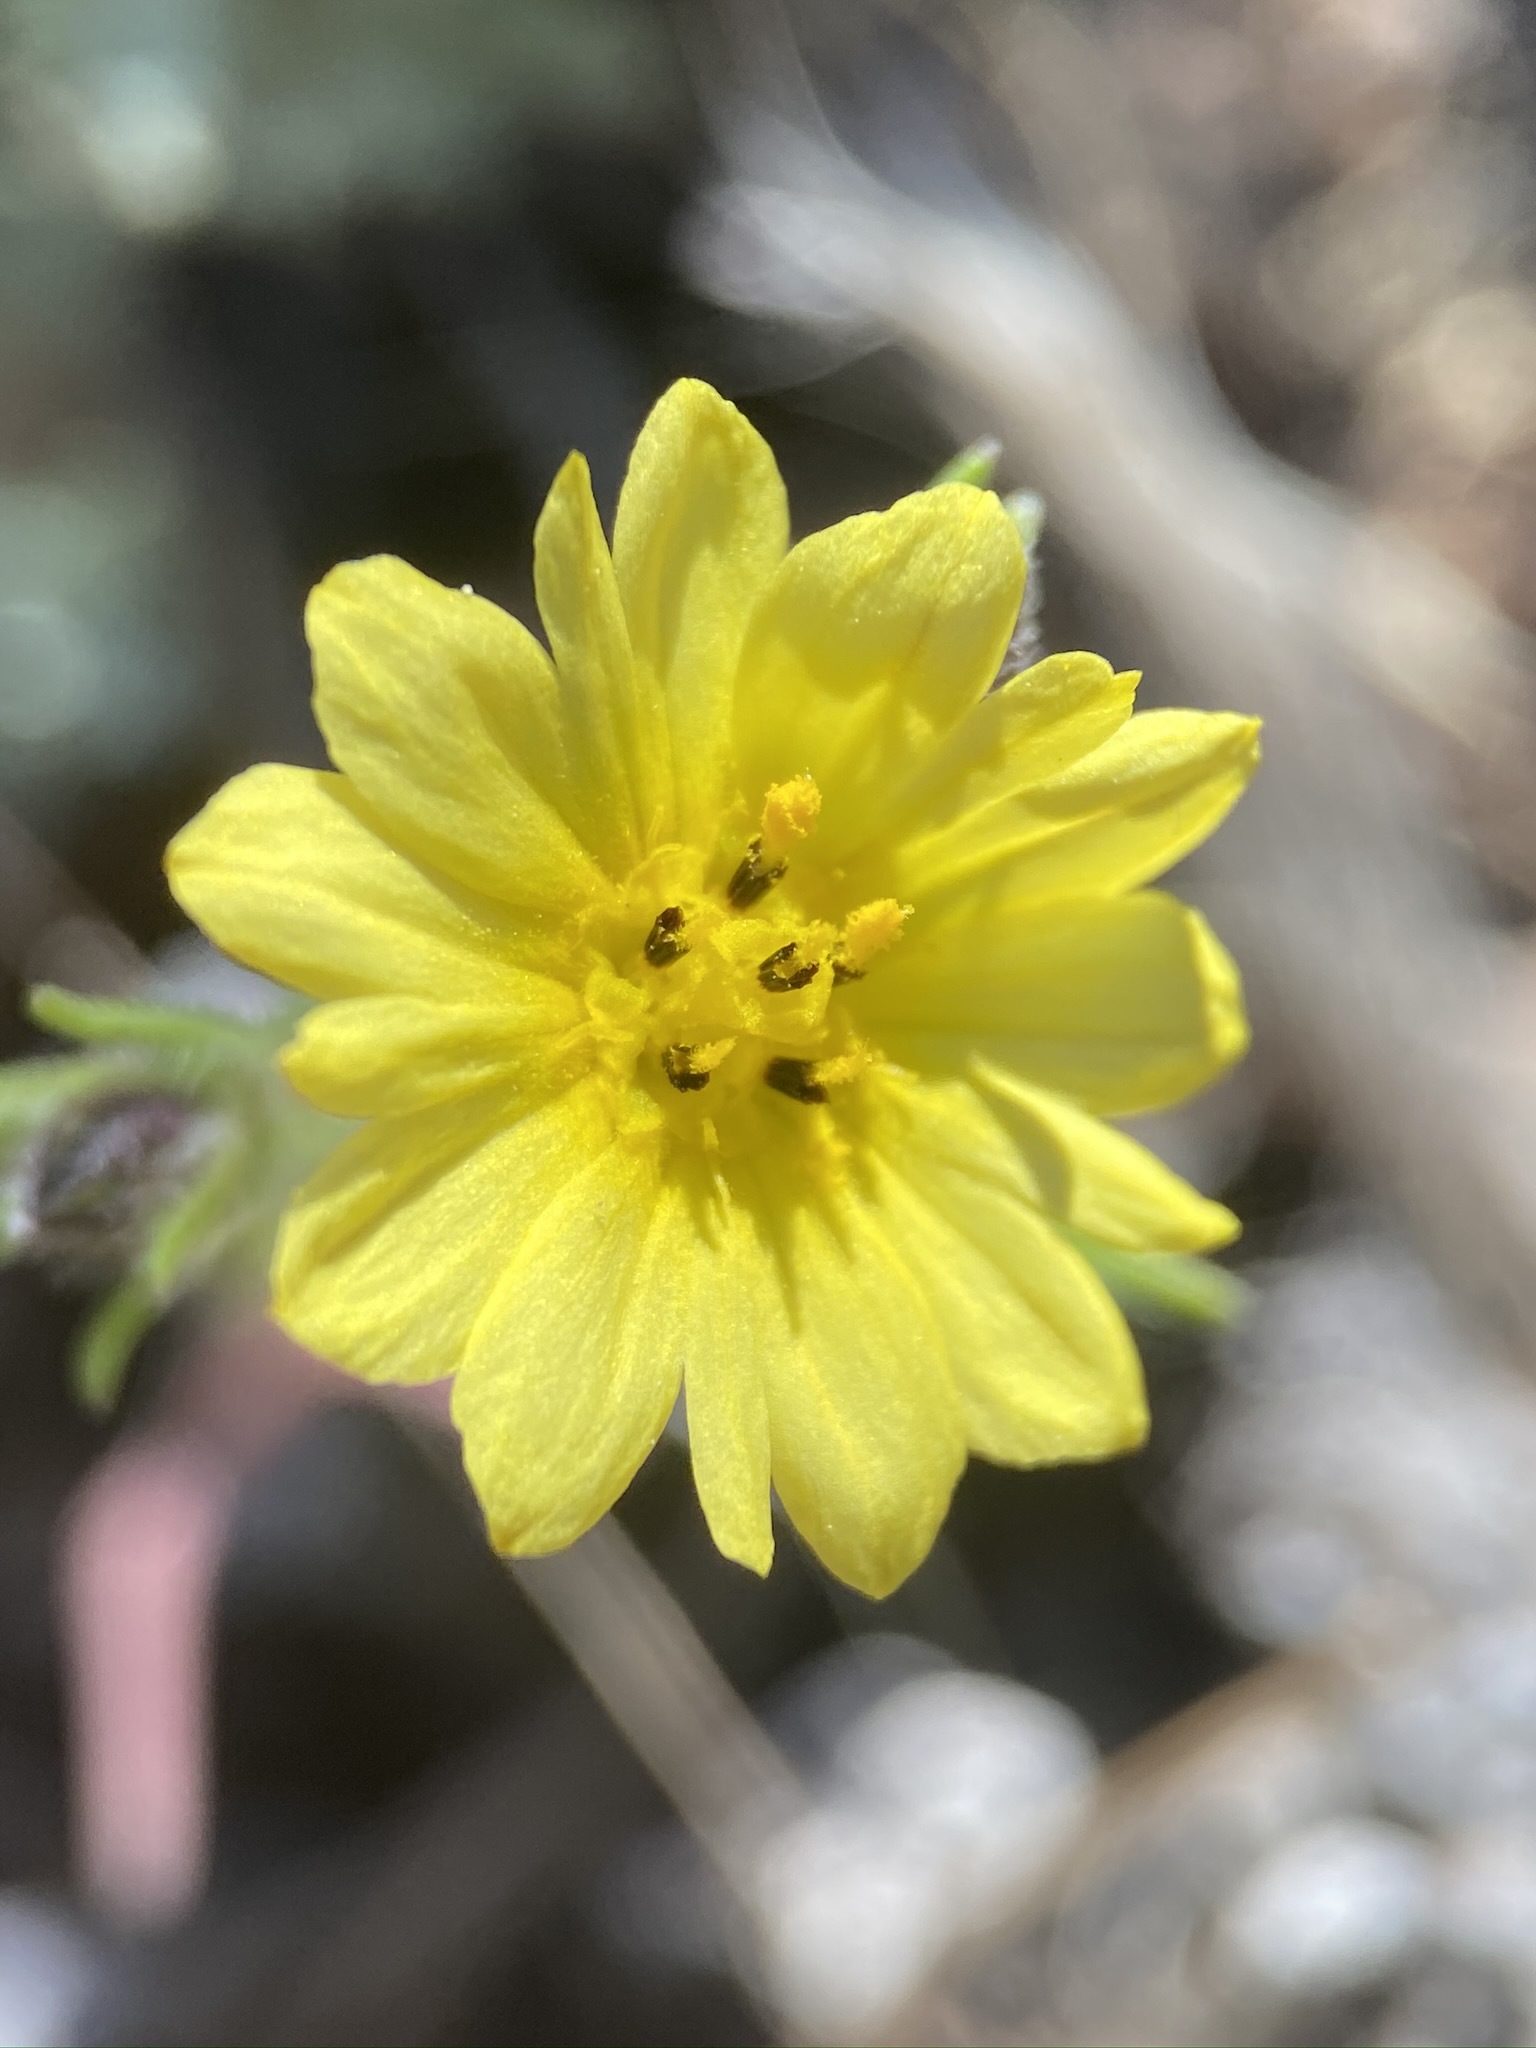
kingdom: Plantae
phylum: Tracheophyta
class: Magnoliopsida
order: Asterales
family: Asteraceae
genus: Lagophylla
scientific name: Lagophylla minor
